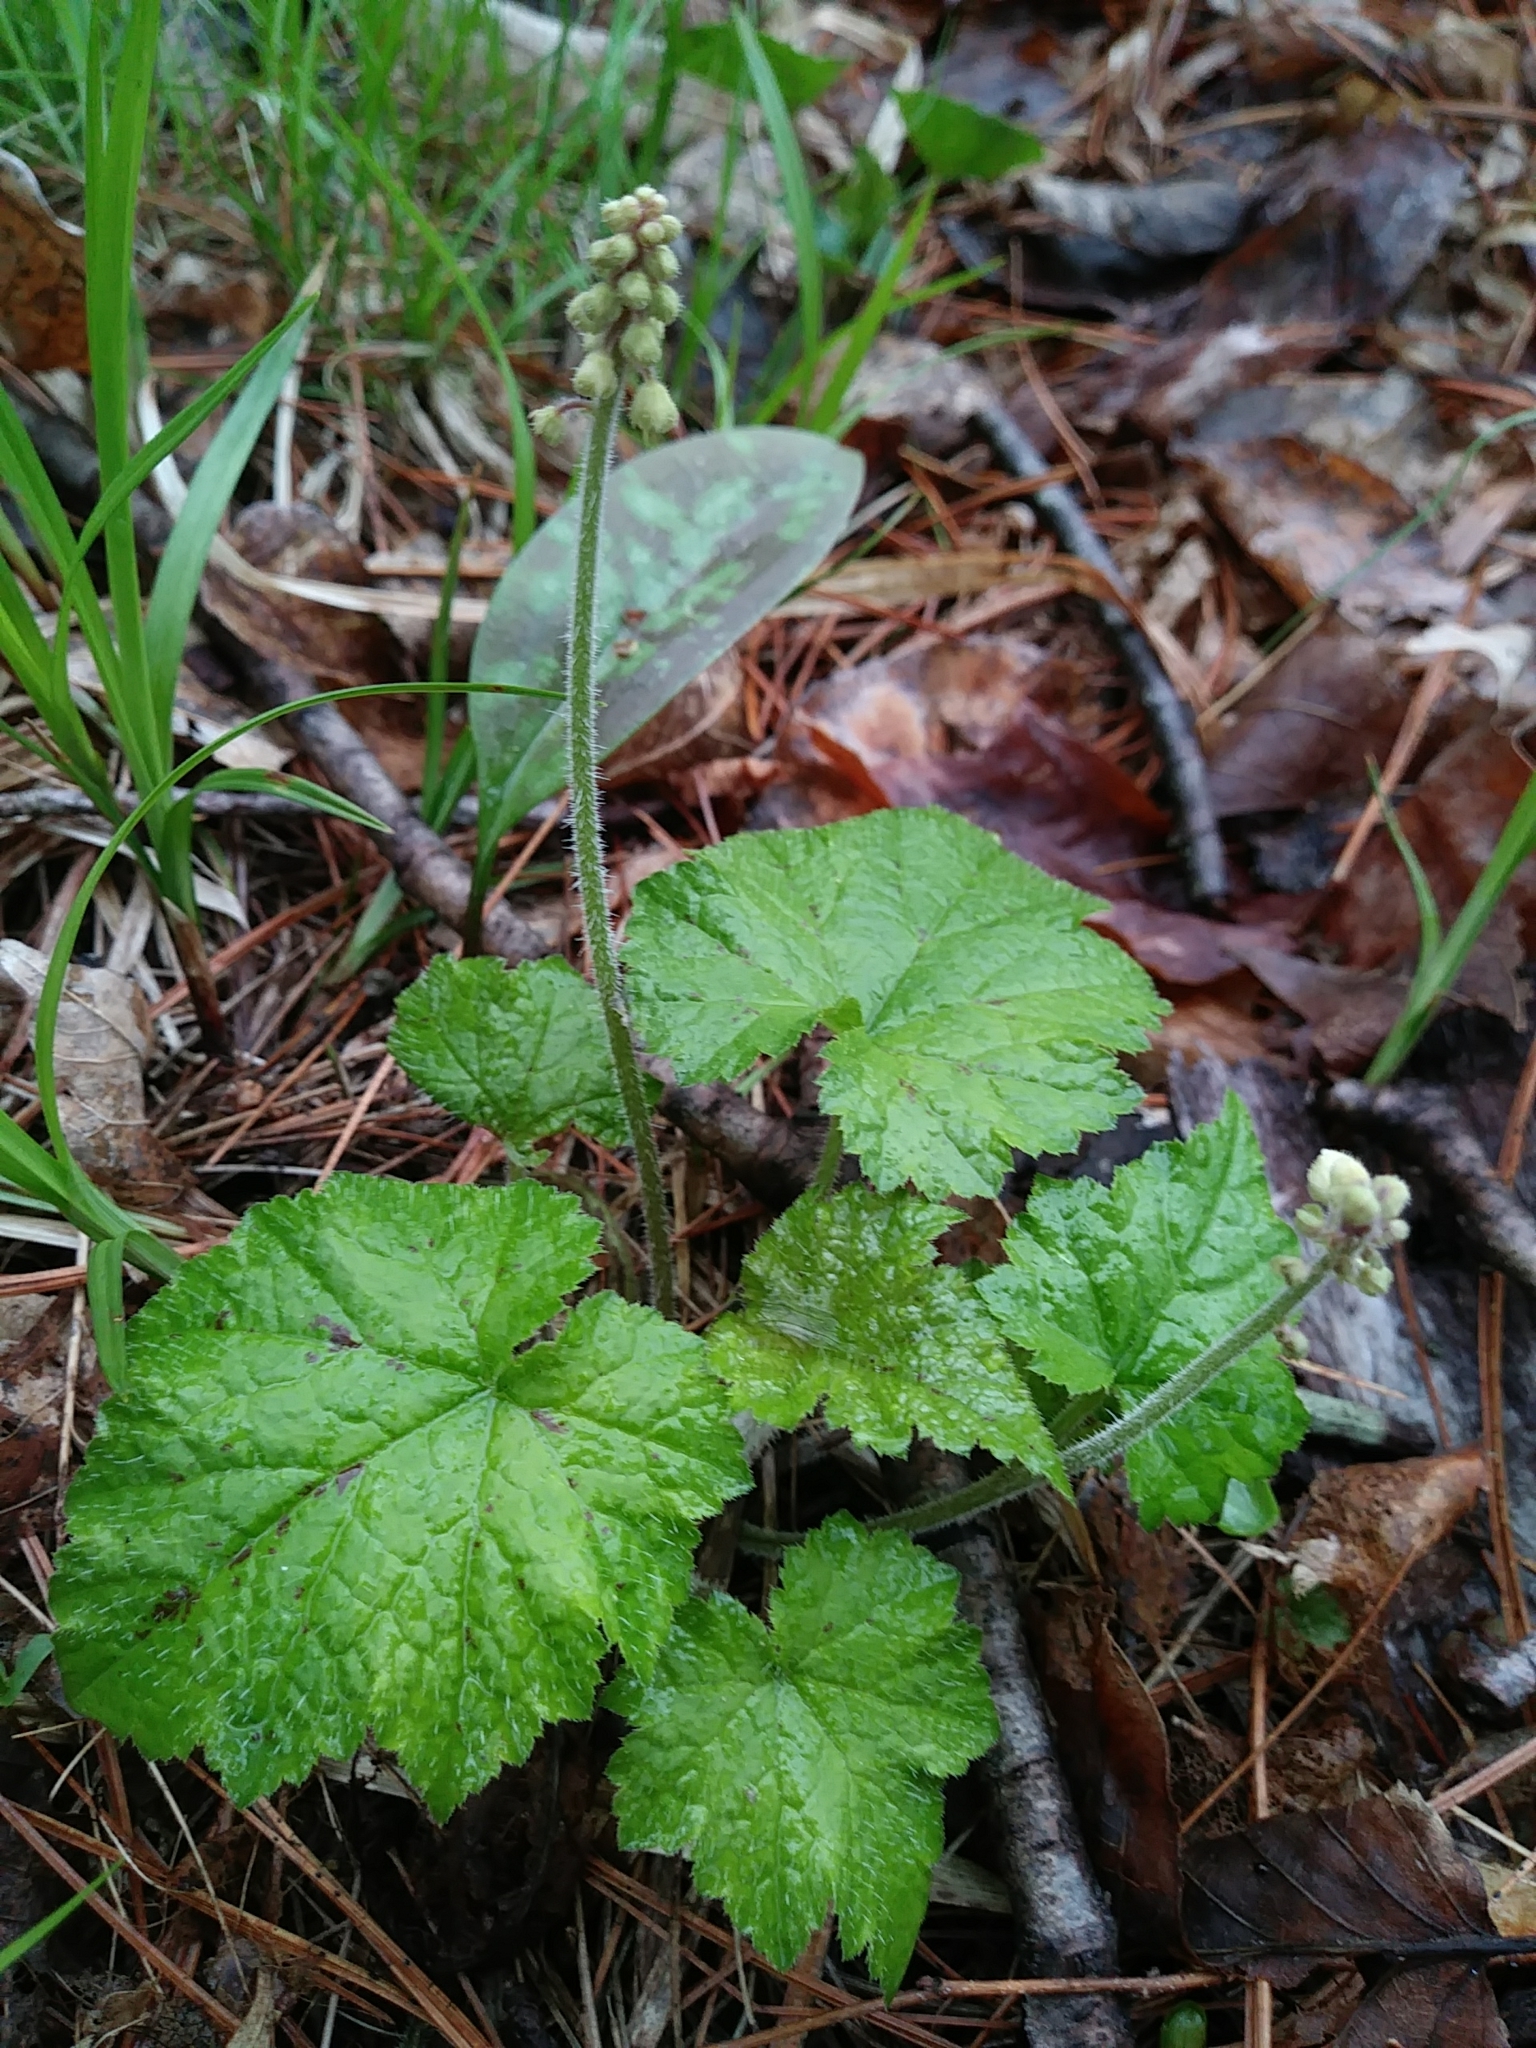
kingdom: Plantae
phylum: Tracheophyta
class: Magnoliopsida
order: Saxifragales
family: Saxifragaceae
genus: Tiarella
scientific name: Tiarella stolonifera
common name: Stoloniferous foamflower
